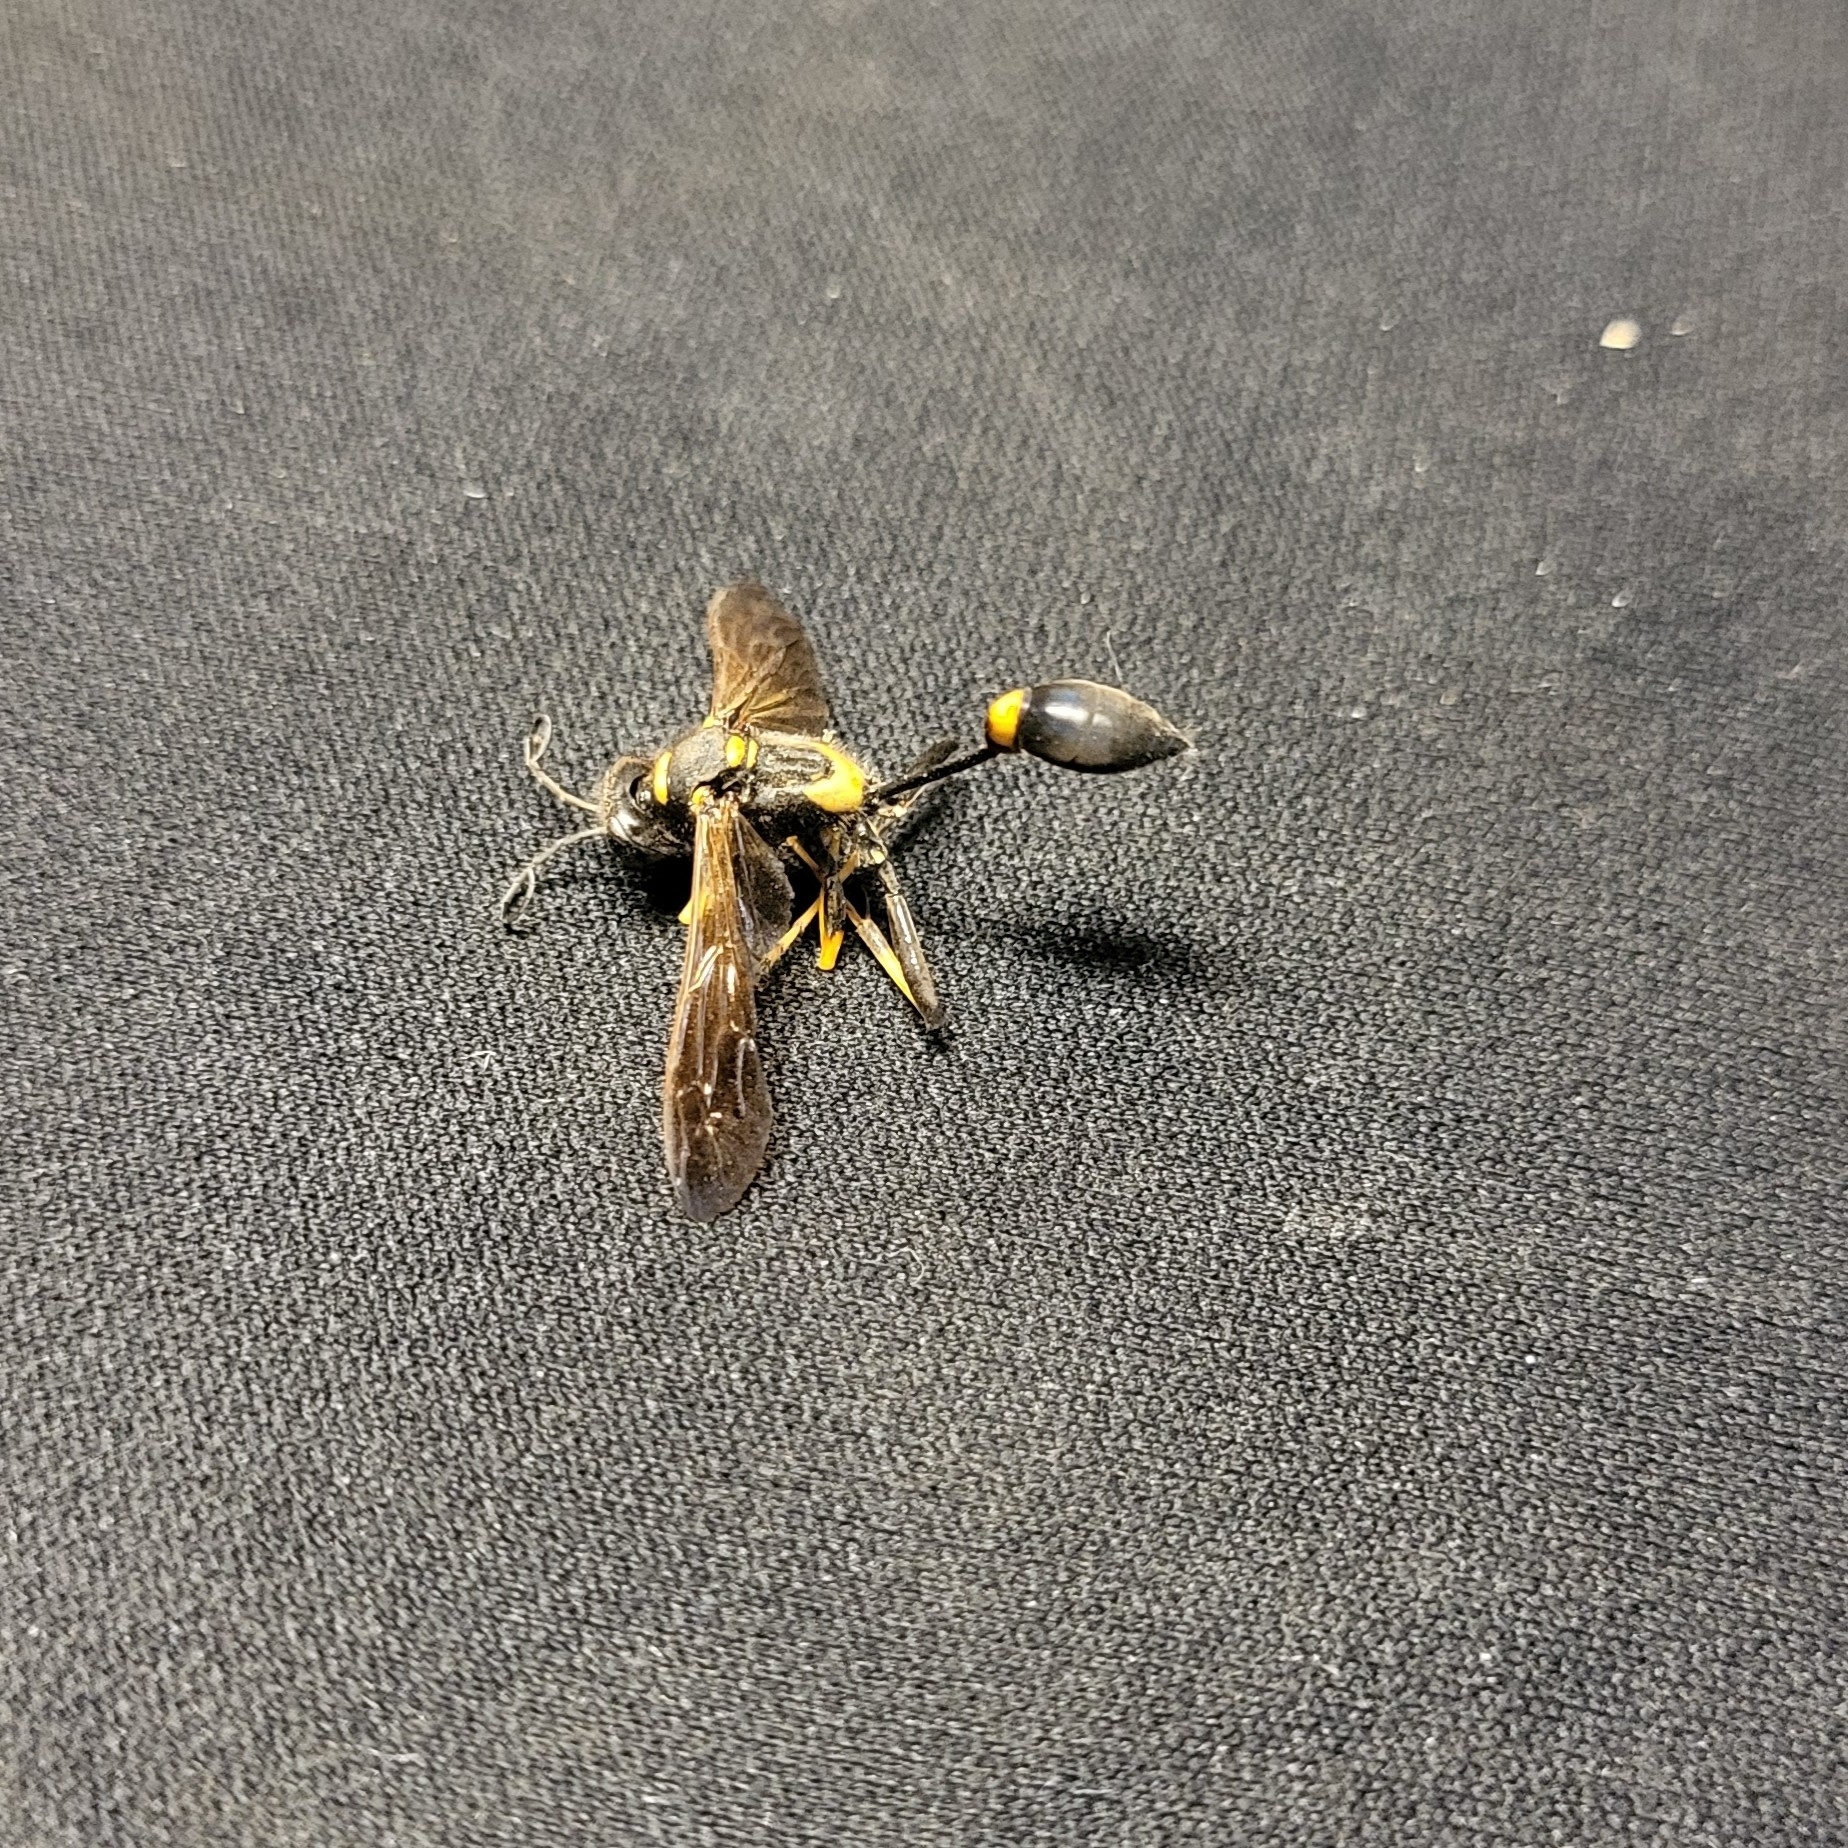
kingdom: Animalia
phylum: Arthropoda
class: Insecta
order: Hymenoptera
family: Sphecidae
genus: Sceliphron
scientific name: Sceliphron caementarium
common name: Mud dauber
